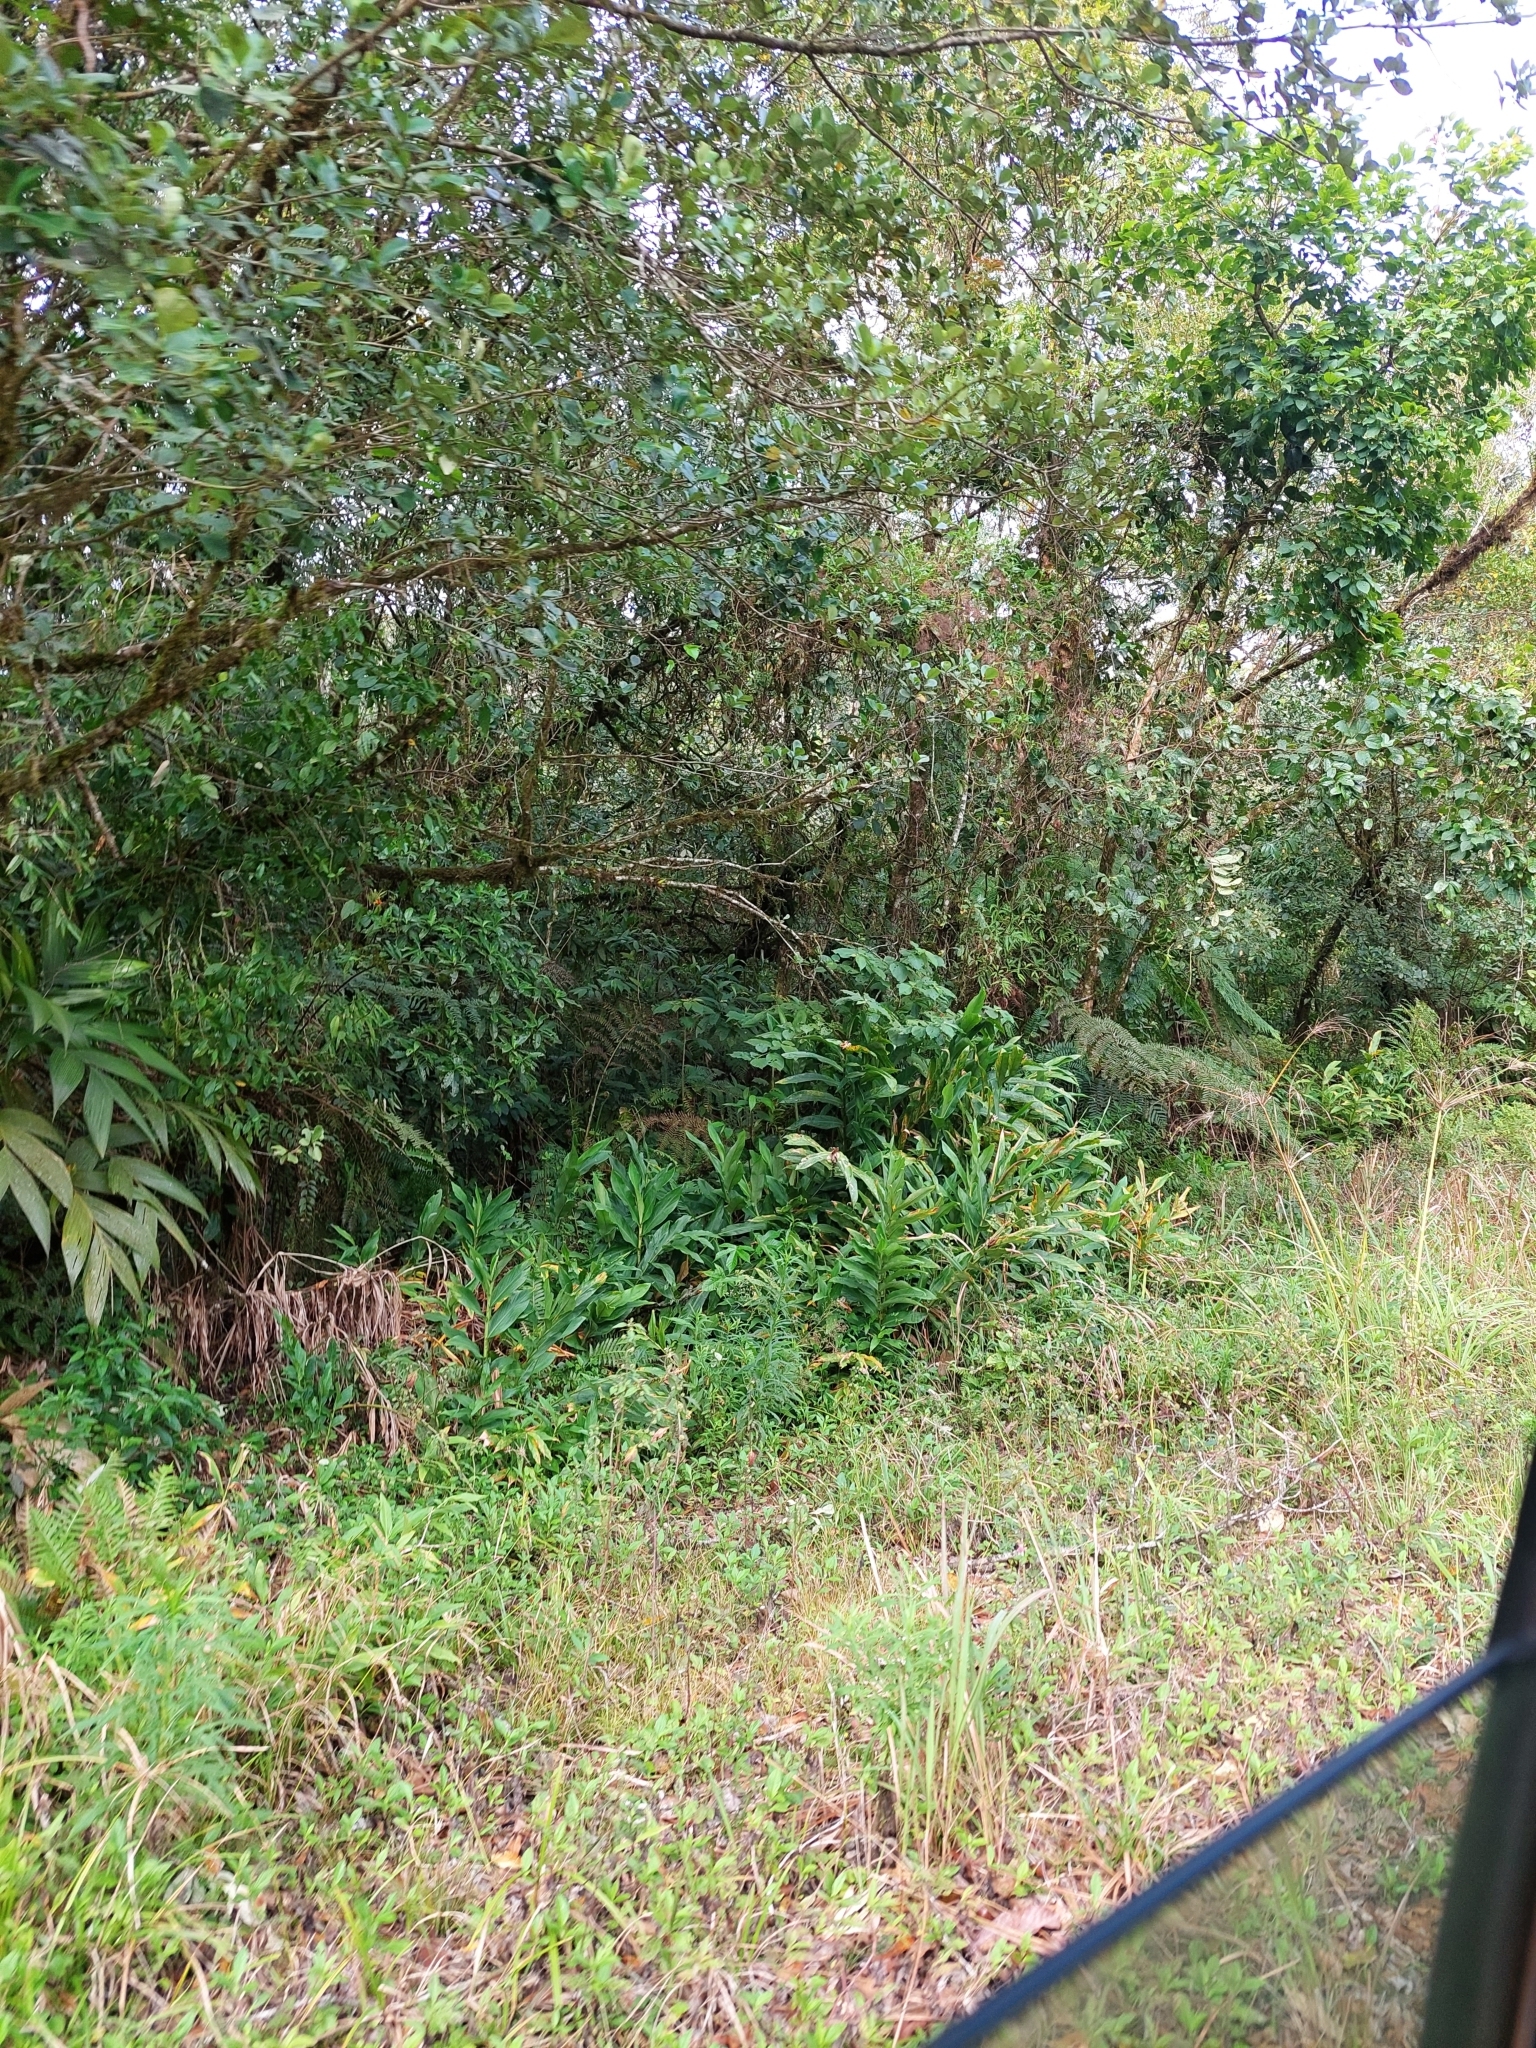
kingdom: Plantae
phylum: Tracheophyta
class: Liliopsida
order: Zingiberales
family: Zingiberaceae
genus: Hedychium
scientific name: Hedychium coronarium
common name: White garland-lily
